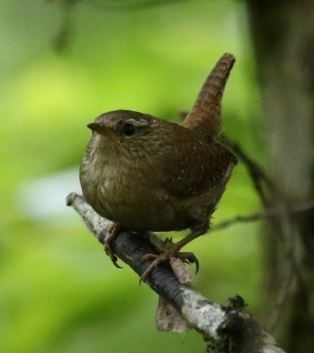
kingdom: Animalia
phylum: Chordata
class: Aves
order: Passeriformes
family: Troglodytidae
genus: Troglodytes
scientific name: Troglodytes troglodytes
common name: Eurasian wren
